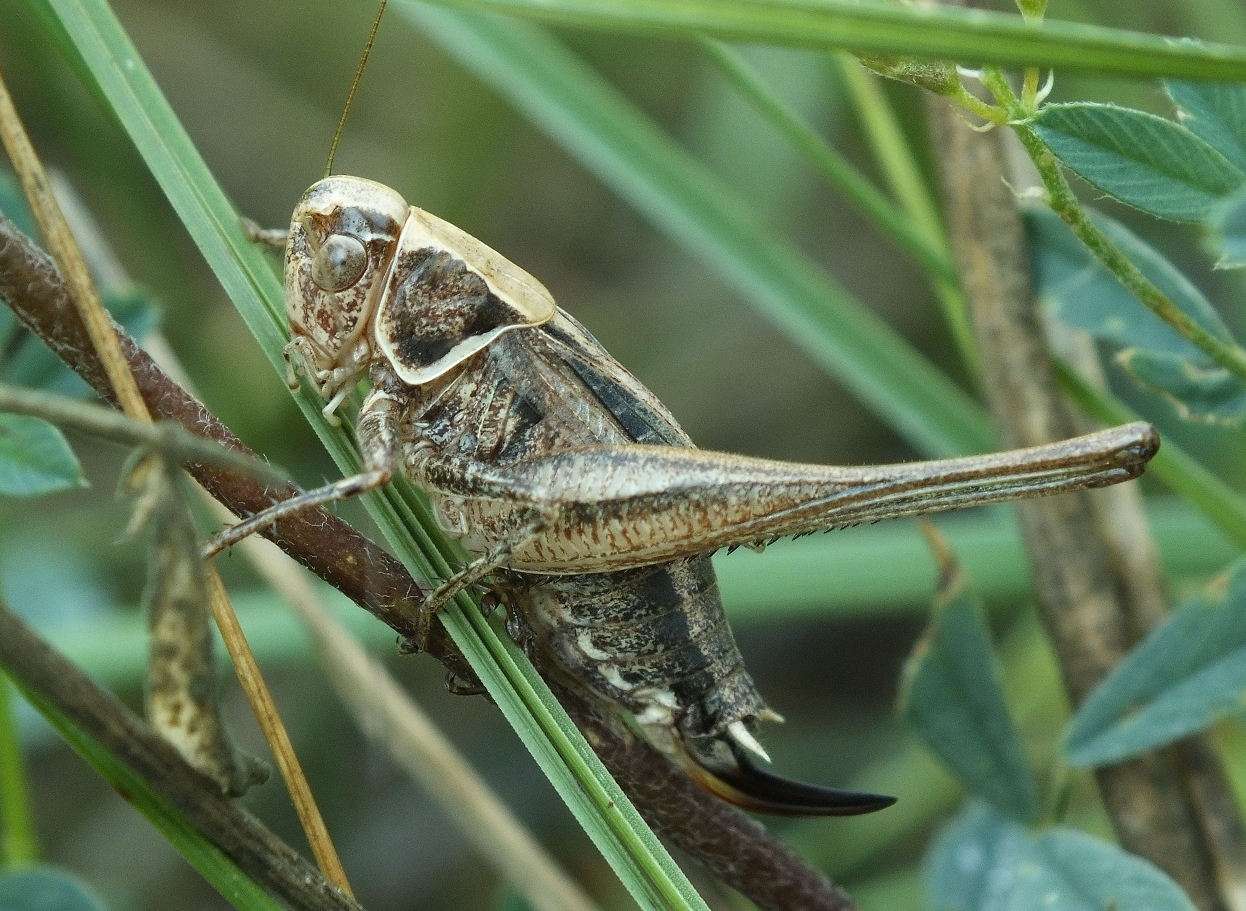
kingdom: Animalia
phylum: Arthropoda
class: Insecta
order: Orthoptera
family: Tettigoniidae
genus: Tessellana
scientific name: Tessellana veyseli
